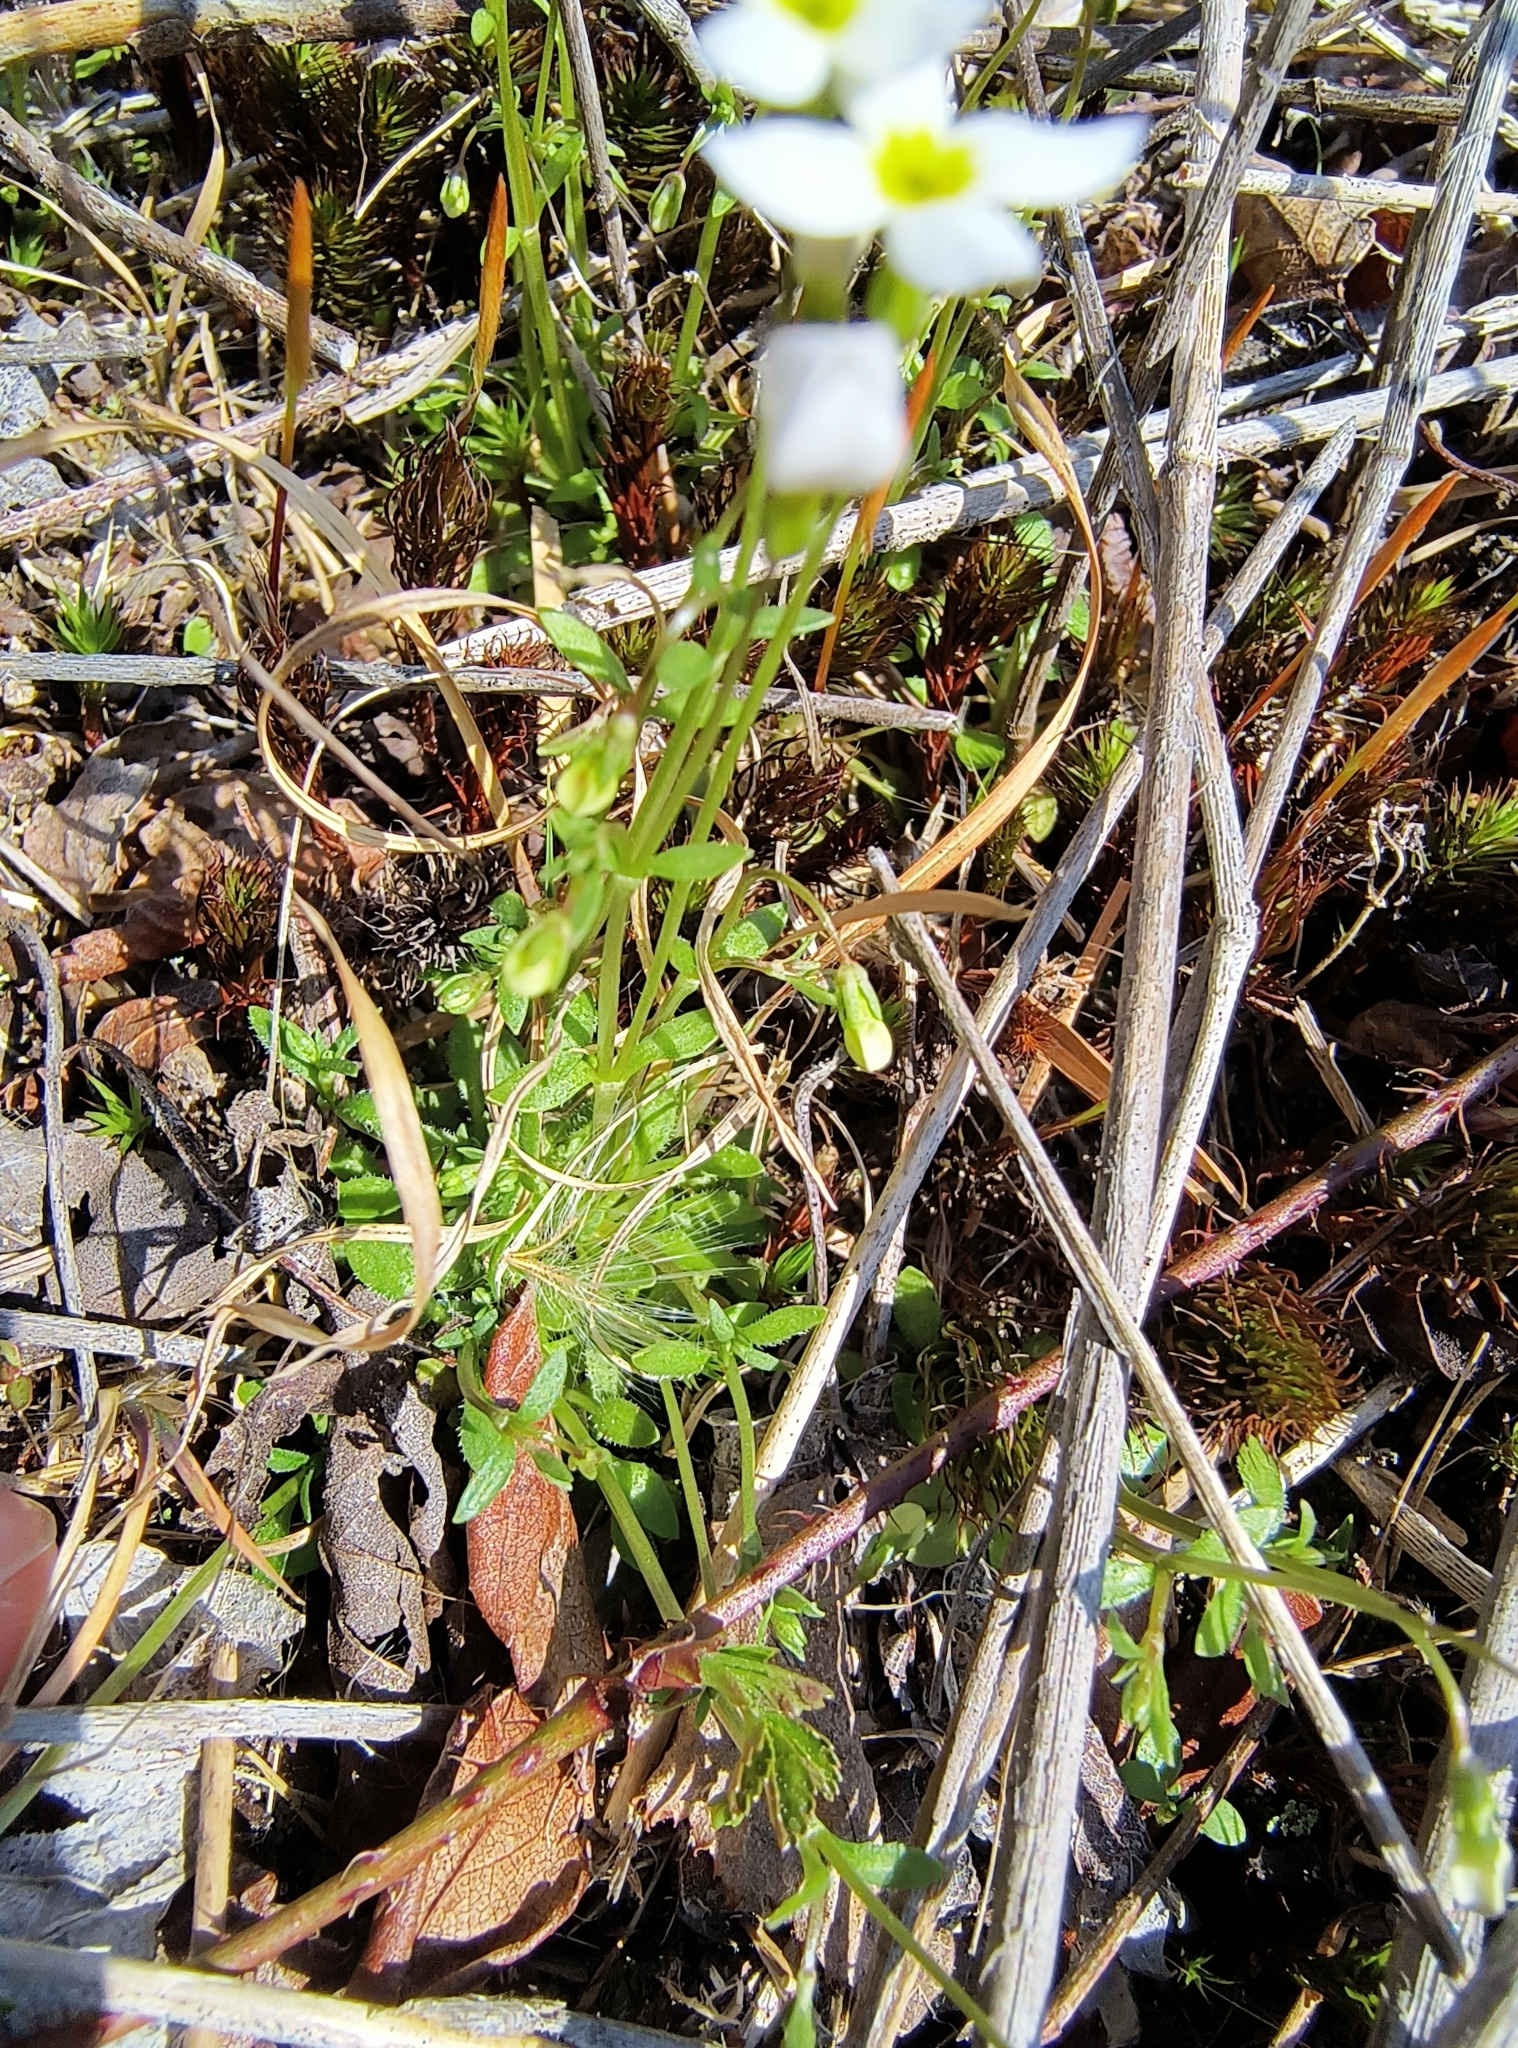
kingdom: Plantae
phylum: Tracheophyta
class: Magnoliopsida
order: Gentianales
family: Rubiaceae
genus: Houstonia
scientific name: Houstonia caerulea
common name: Bluets
